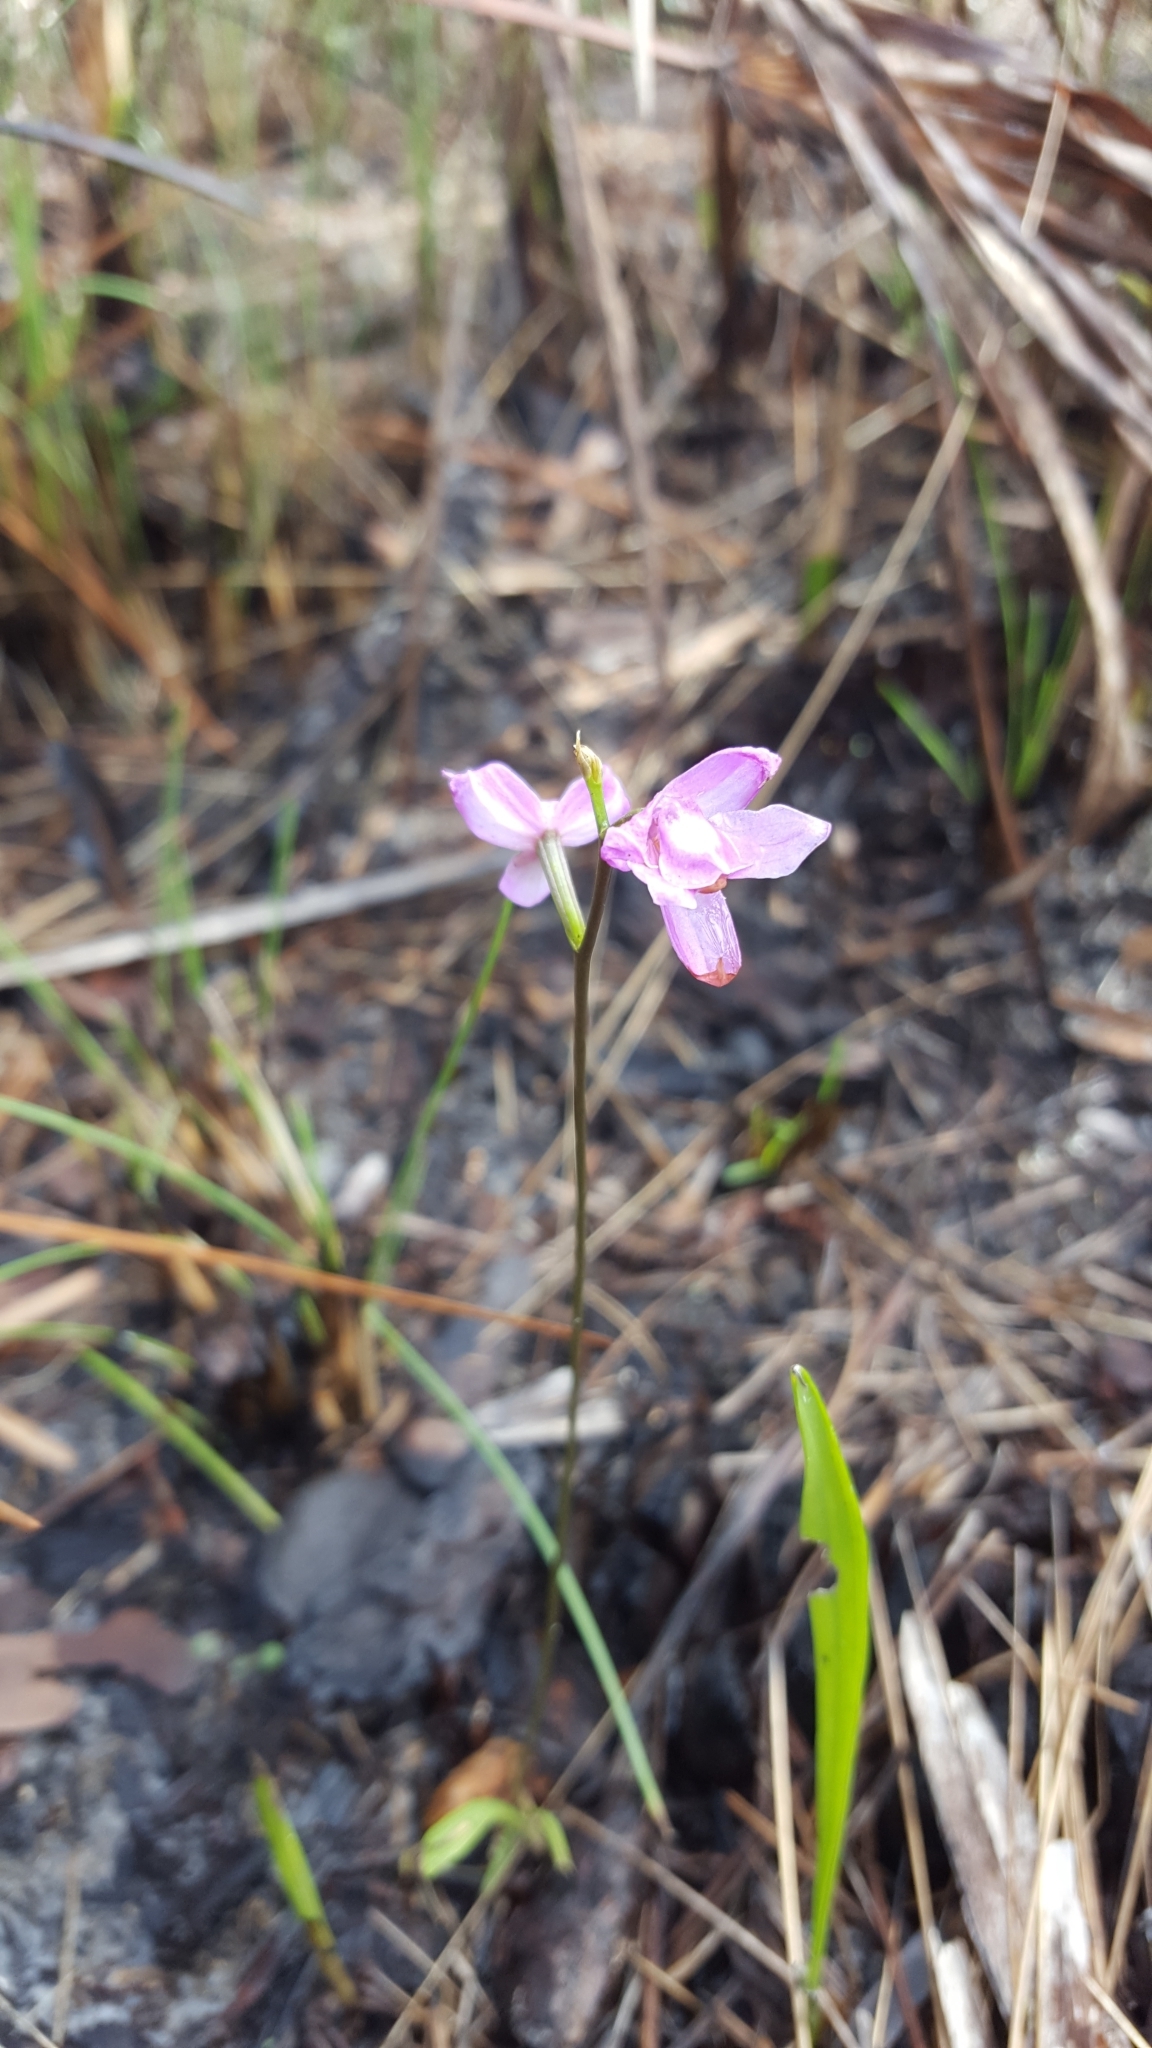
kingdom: Plantae
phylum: Tracheophyta
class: Liliopsida
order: Asparagales
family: Orchidaceae
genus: Calopogon
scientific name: Calopogon multiflorus
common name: Many-flowered grass-pink orchid
